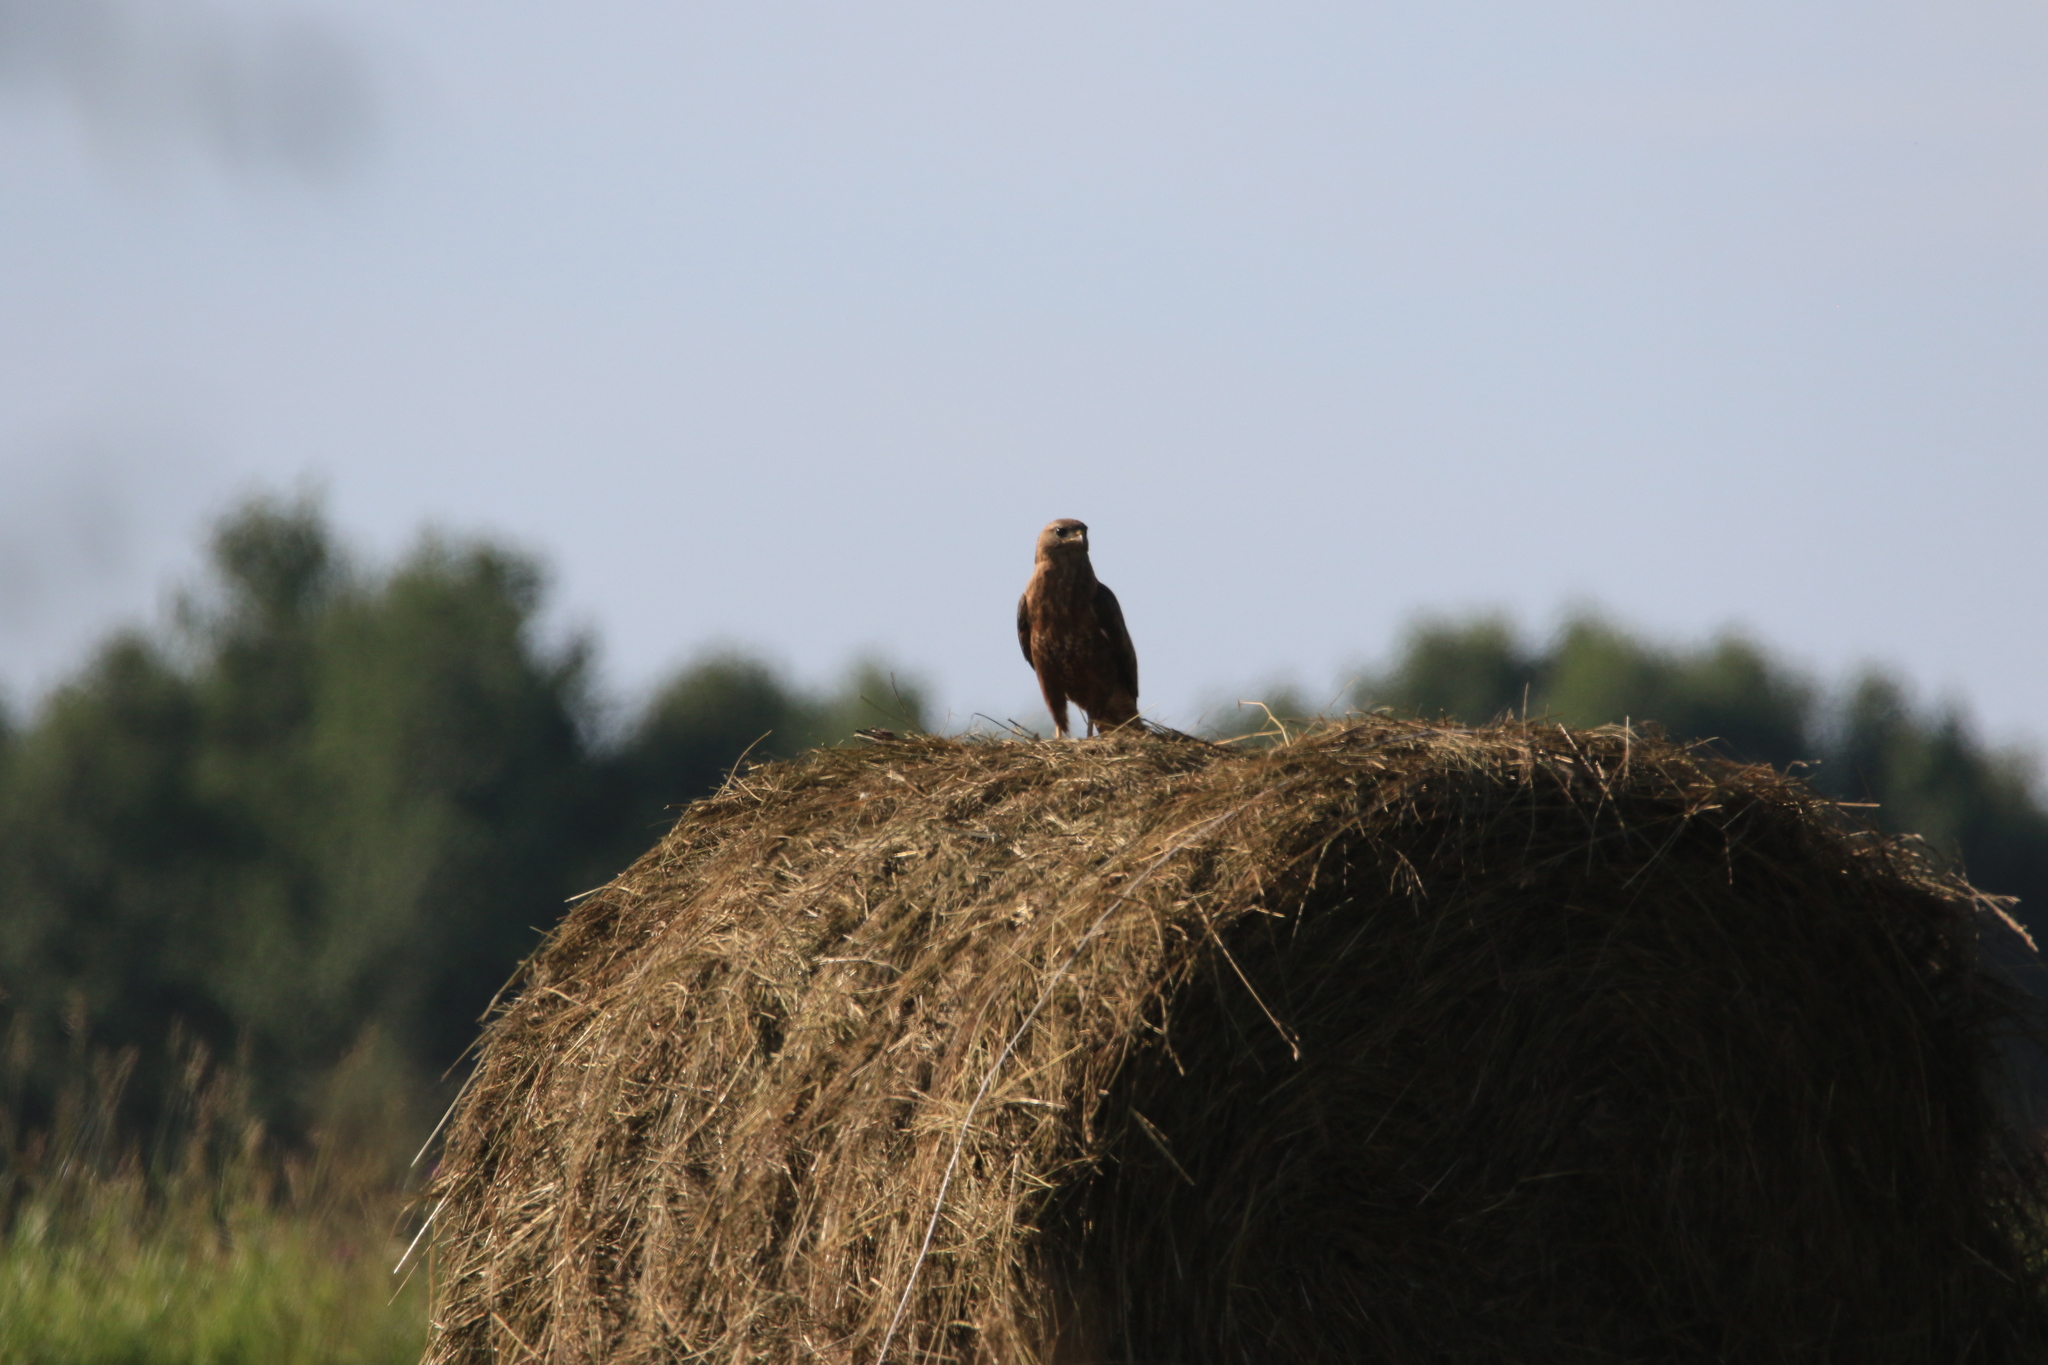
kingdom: Animalia
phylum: Chordata
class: Aves
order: Accipitriformes
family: Accipitridae
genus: Buteo
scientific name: Buteo buteo
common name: Common buzzard
